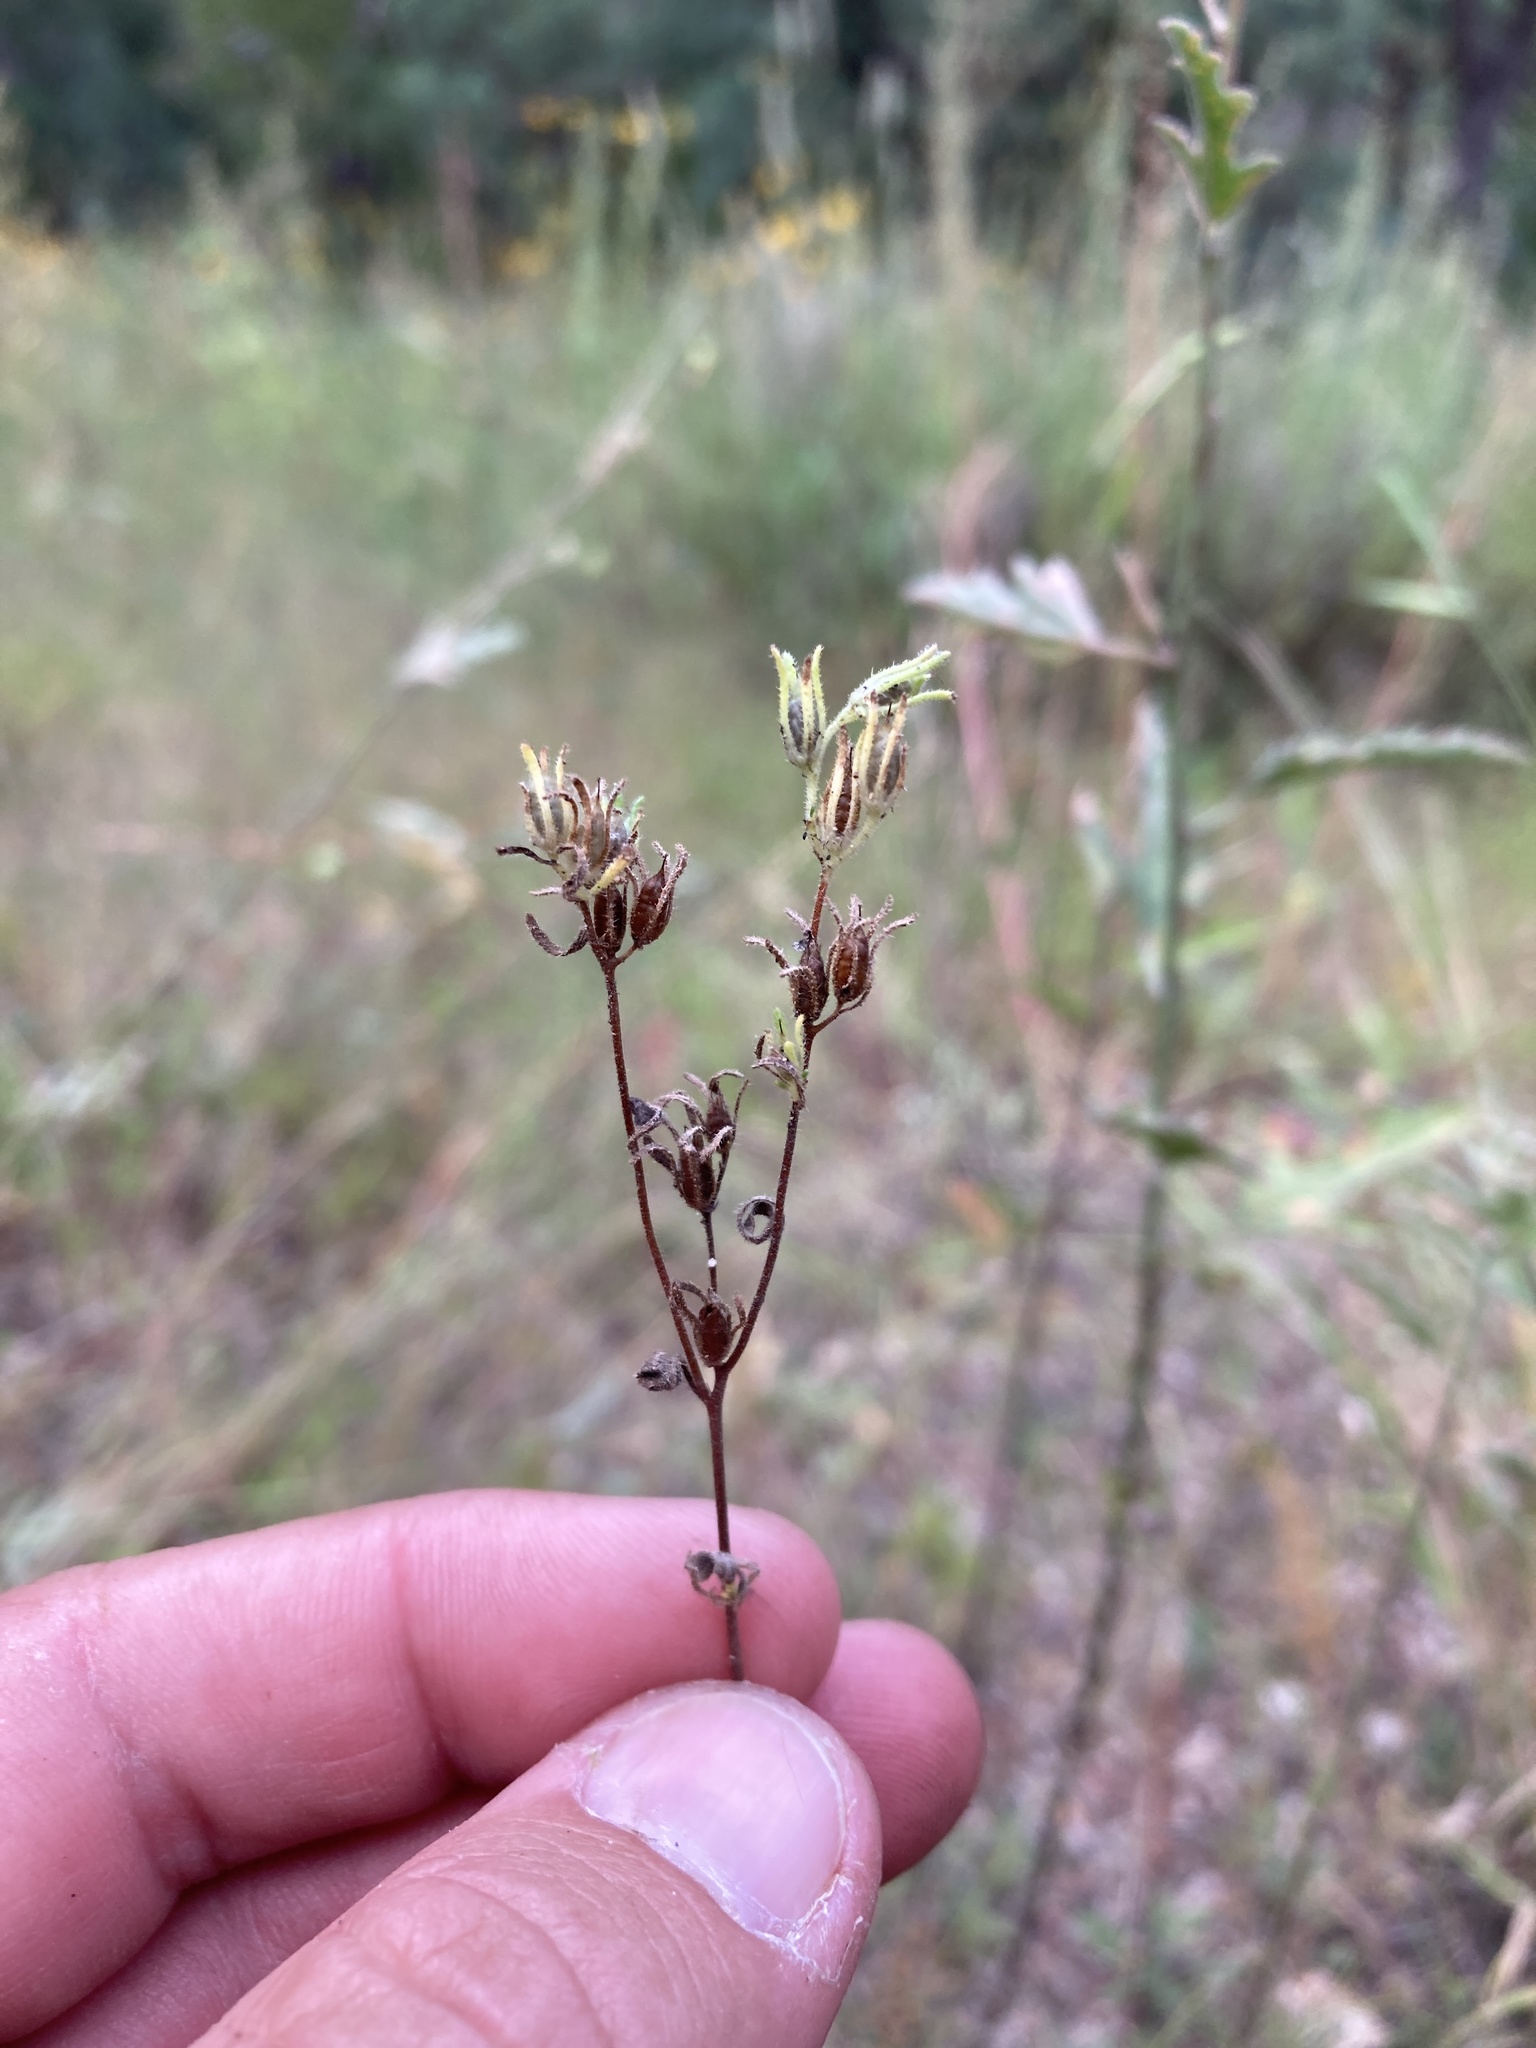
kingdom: Plantae
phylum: Tracheophyta
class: Magnoliopsida
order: Boraginales
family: Namaceae
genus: Nama
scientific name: Nama dichotoma
